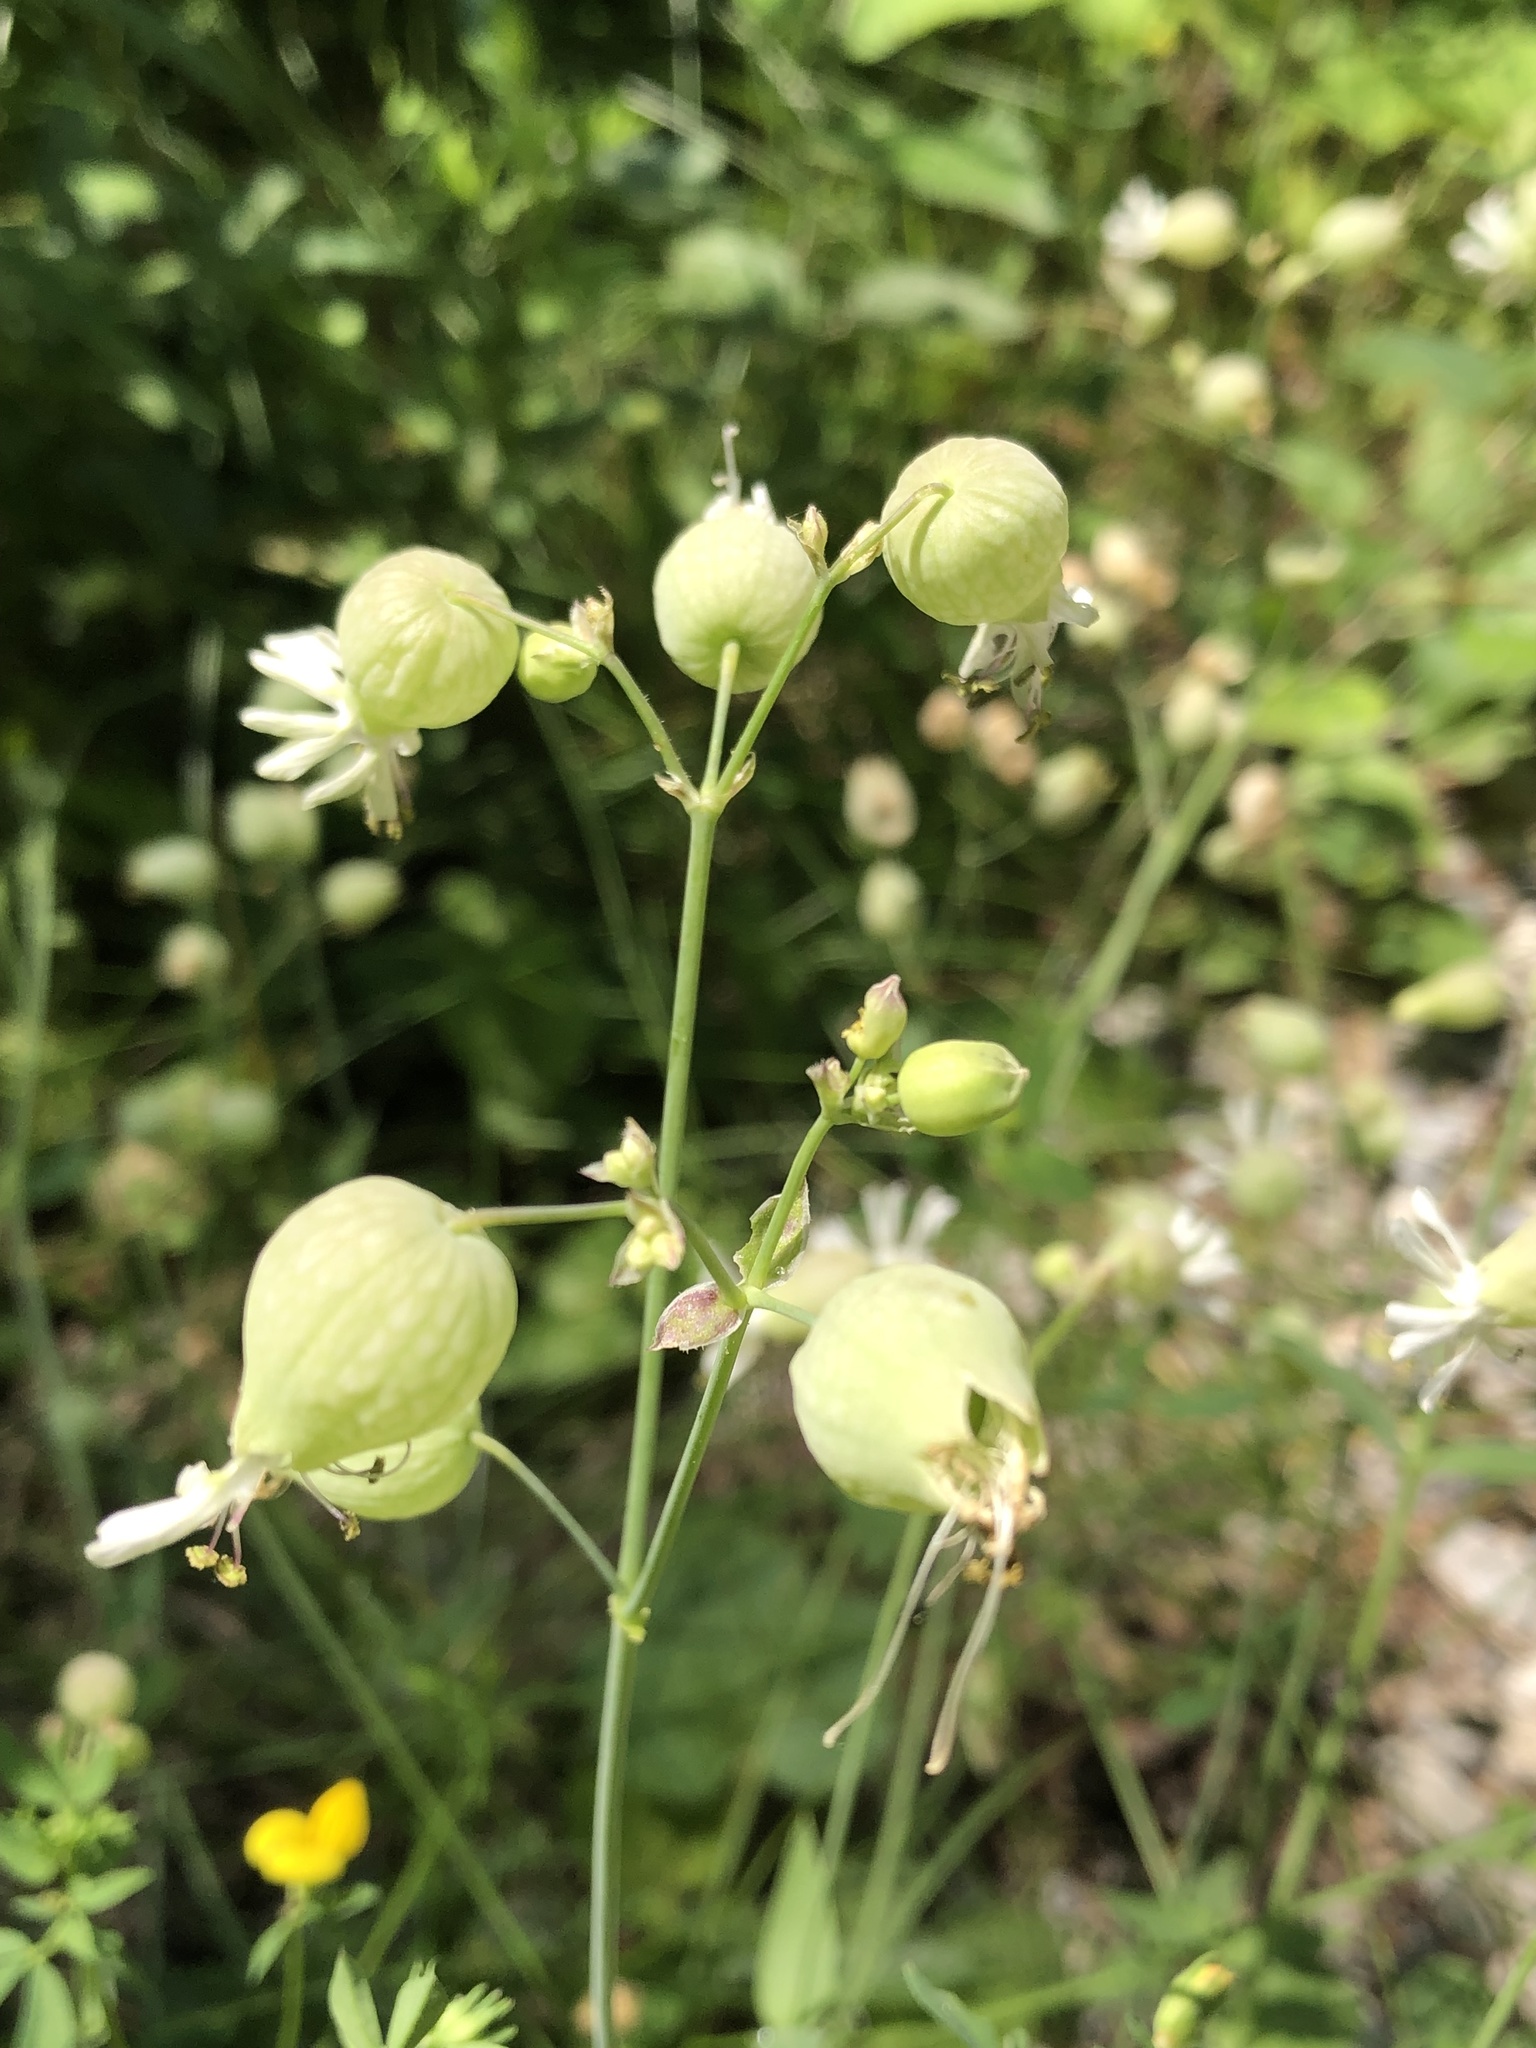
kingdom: Plantae
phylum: Tracheophyta
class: Magnoliopsida
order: Caryophyllales
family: Caryophyllaceae
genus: Silene
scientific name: Silene vulgaris
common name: Bladder campion
